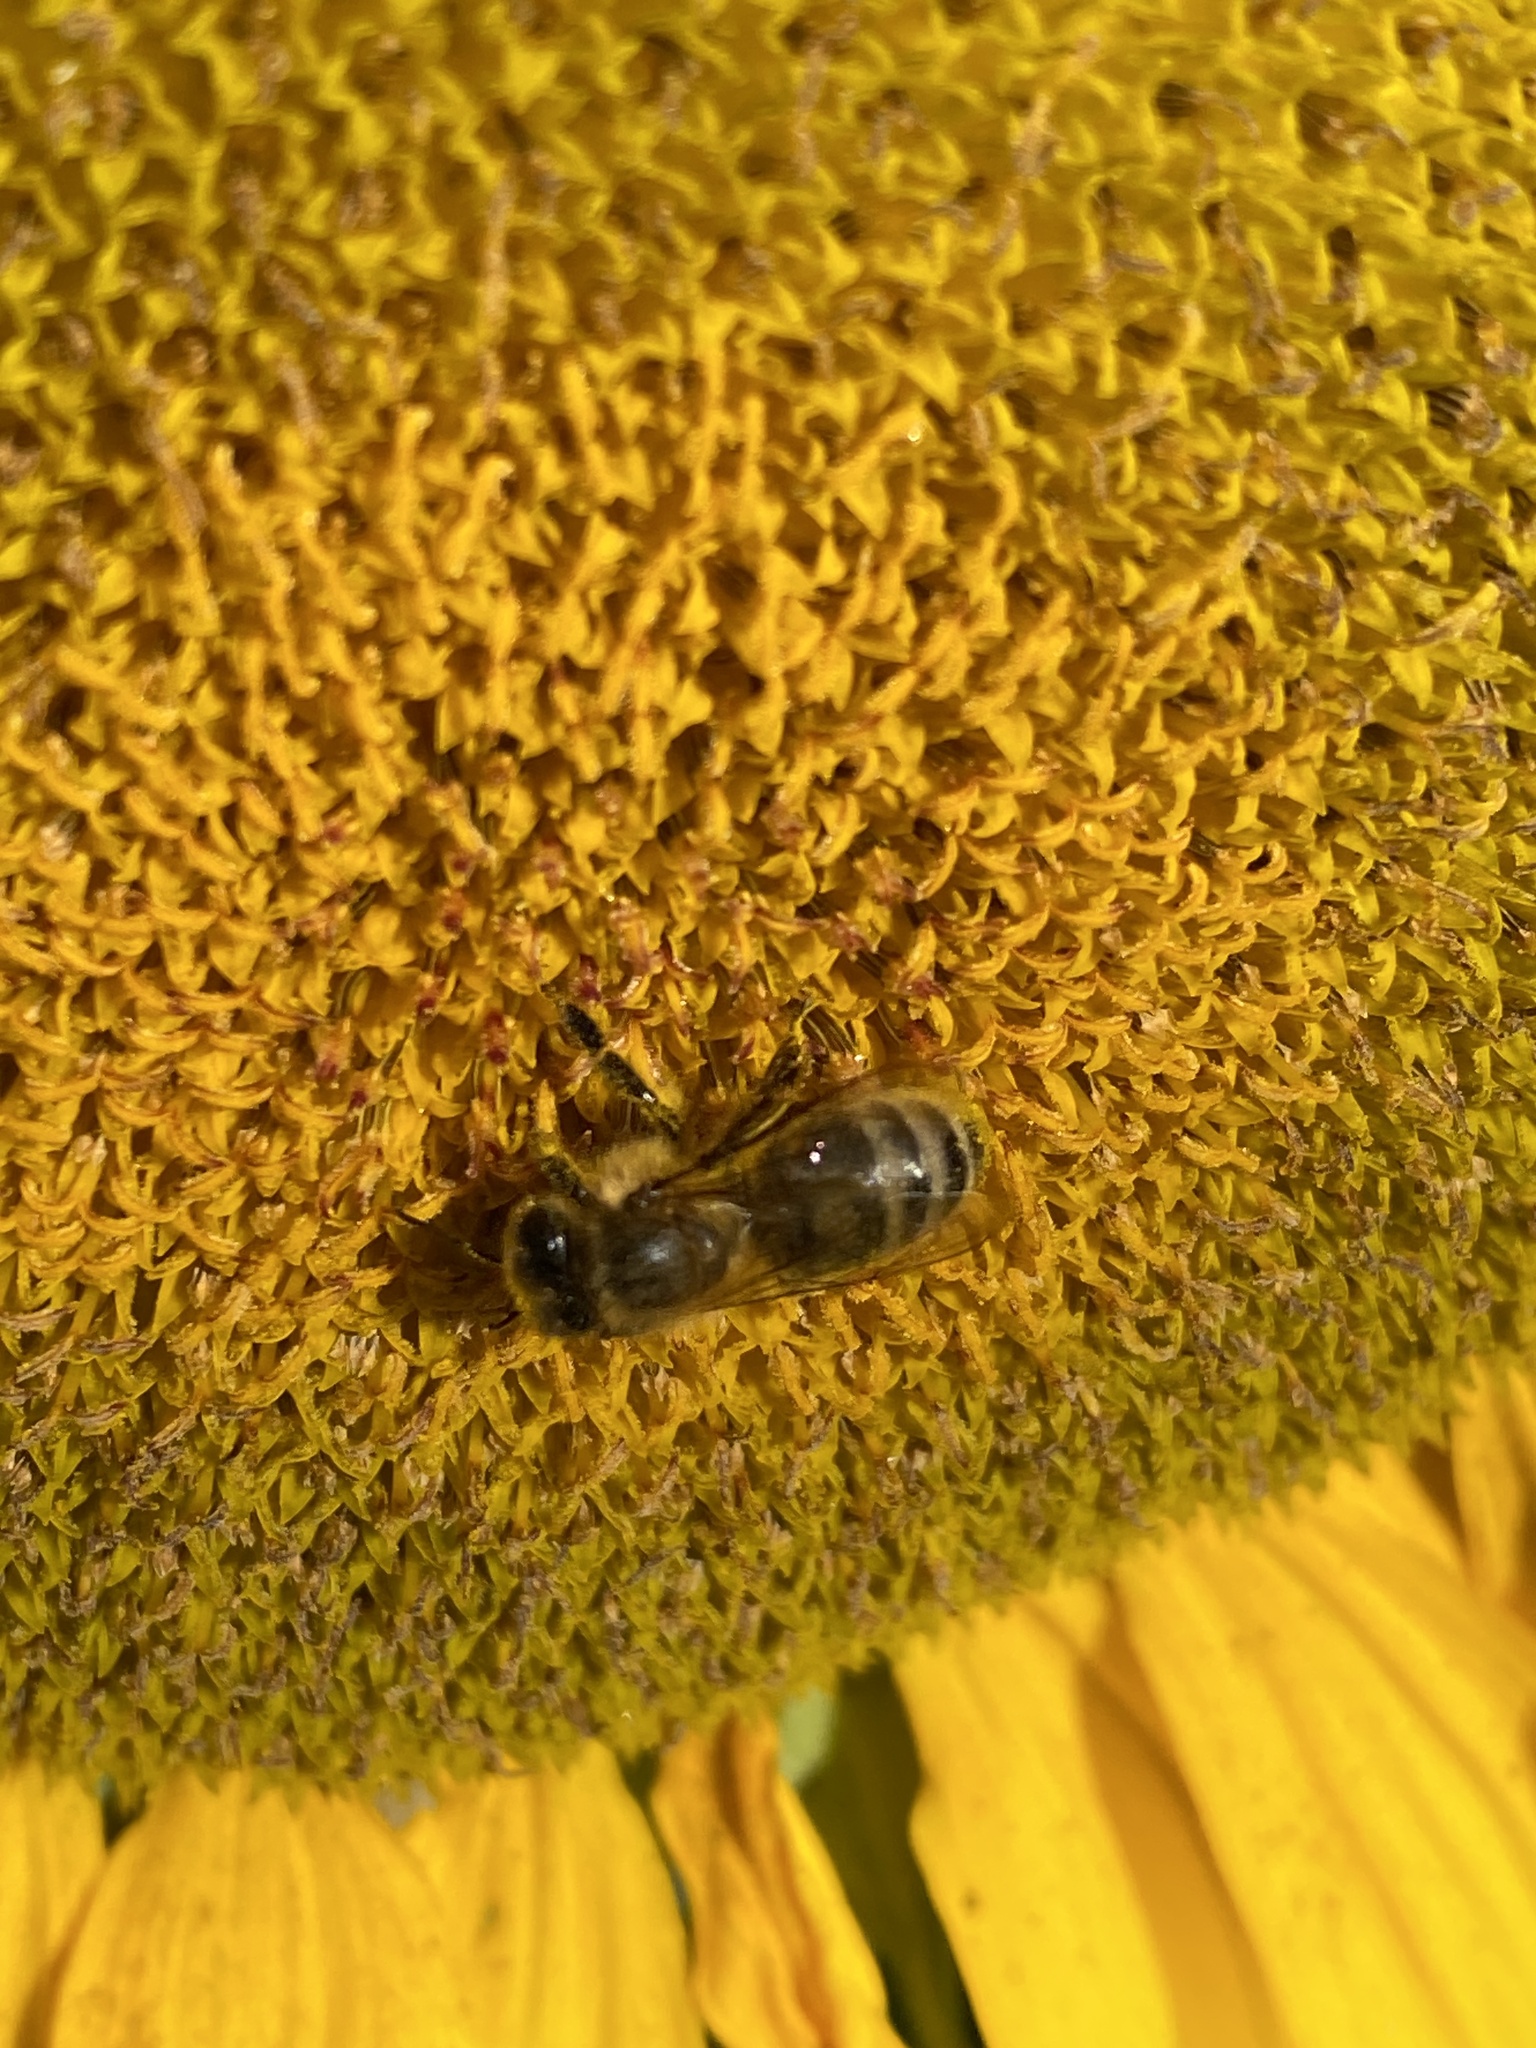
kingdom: Animalia
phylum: Arthropoda
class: Insecta
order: Hymenoptera
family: Apidae
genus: Apis
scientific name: Apis mellifera
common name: Honey bee
